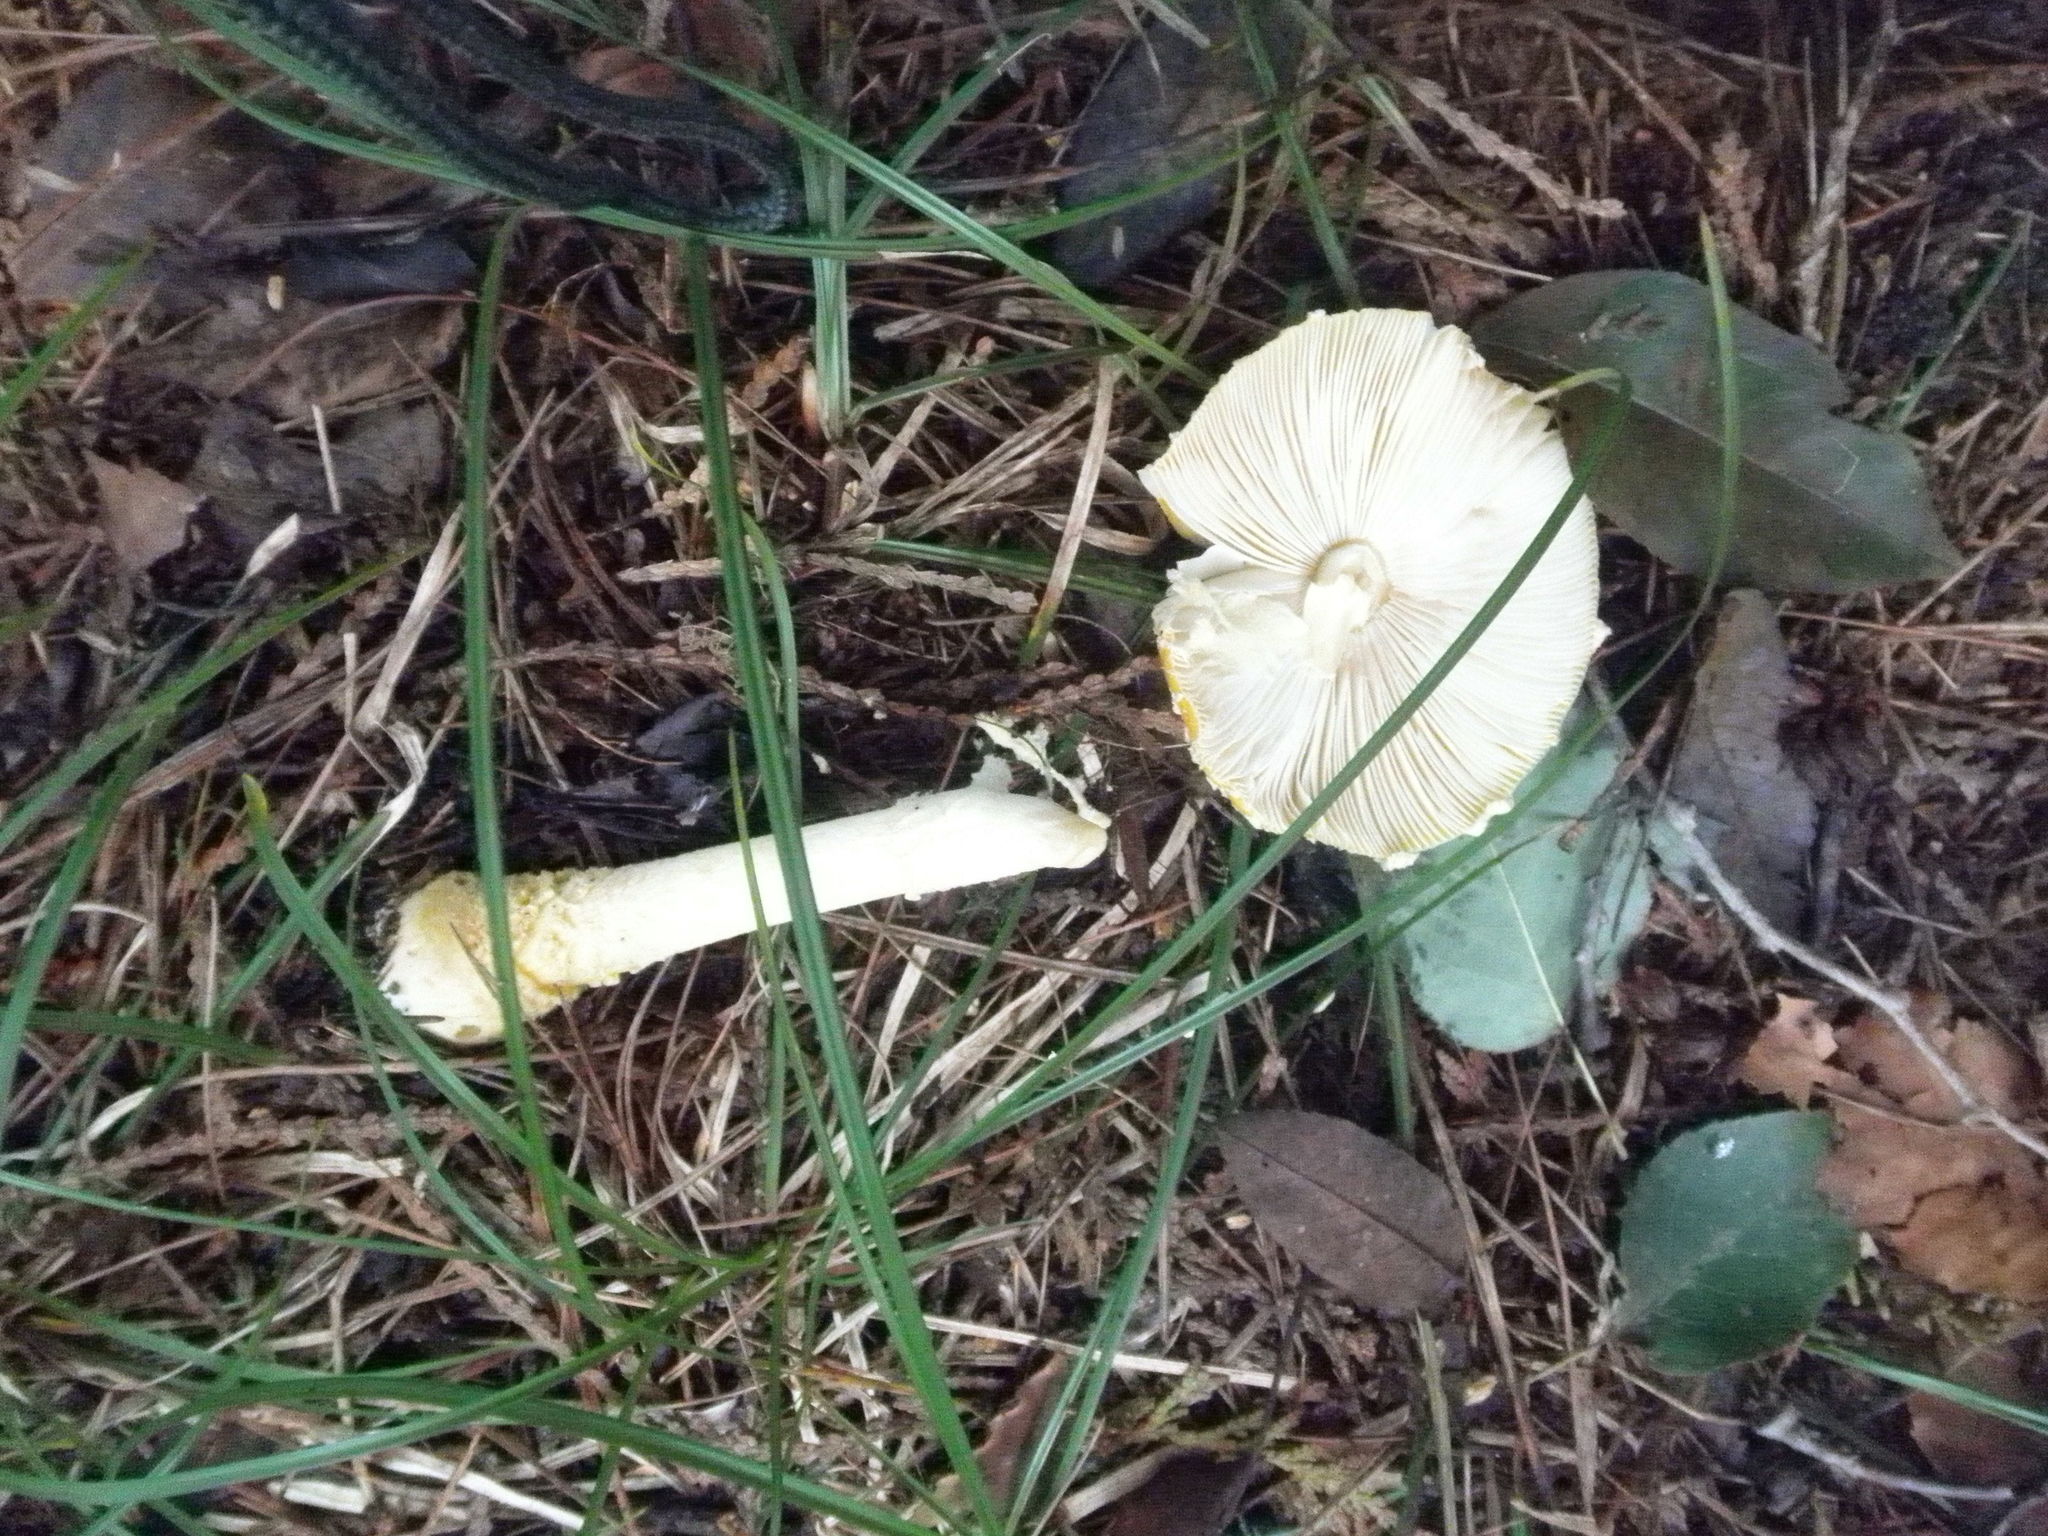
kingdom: Fungi
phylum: Basidiomycota
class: Agaricomycetes
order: Agaricales
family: Amanitaceae
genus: Amanita
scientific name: Amanita muscaria
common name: Fly agaric
